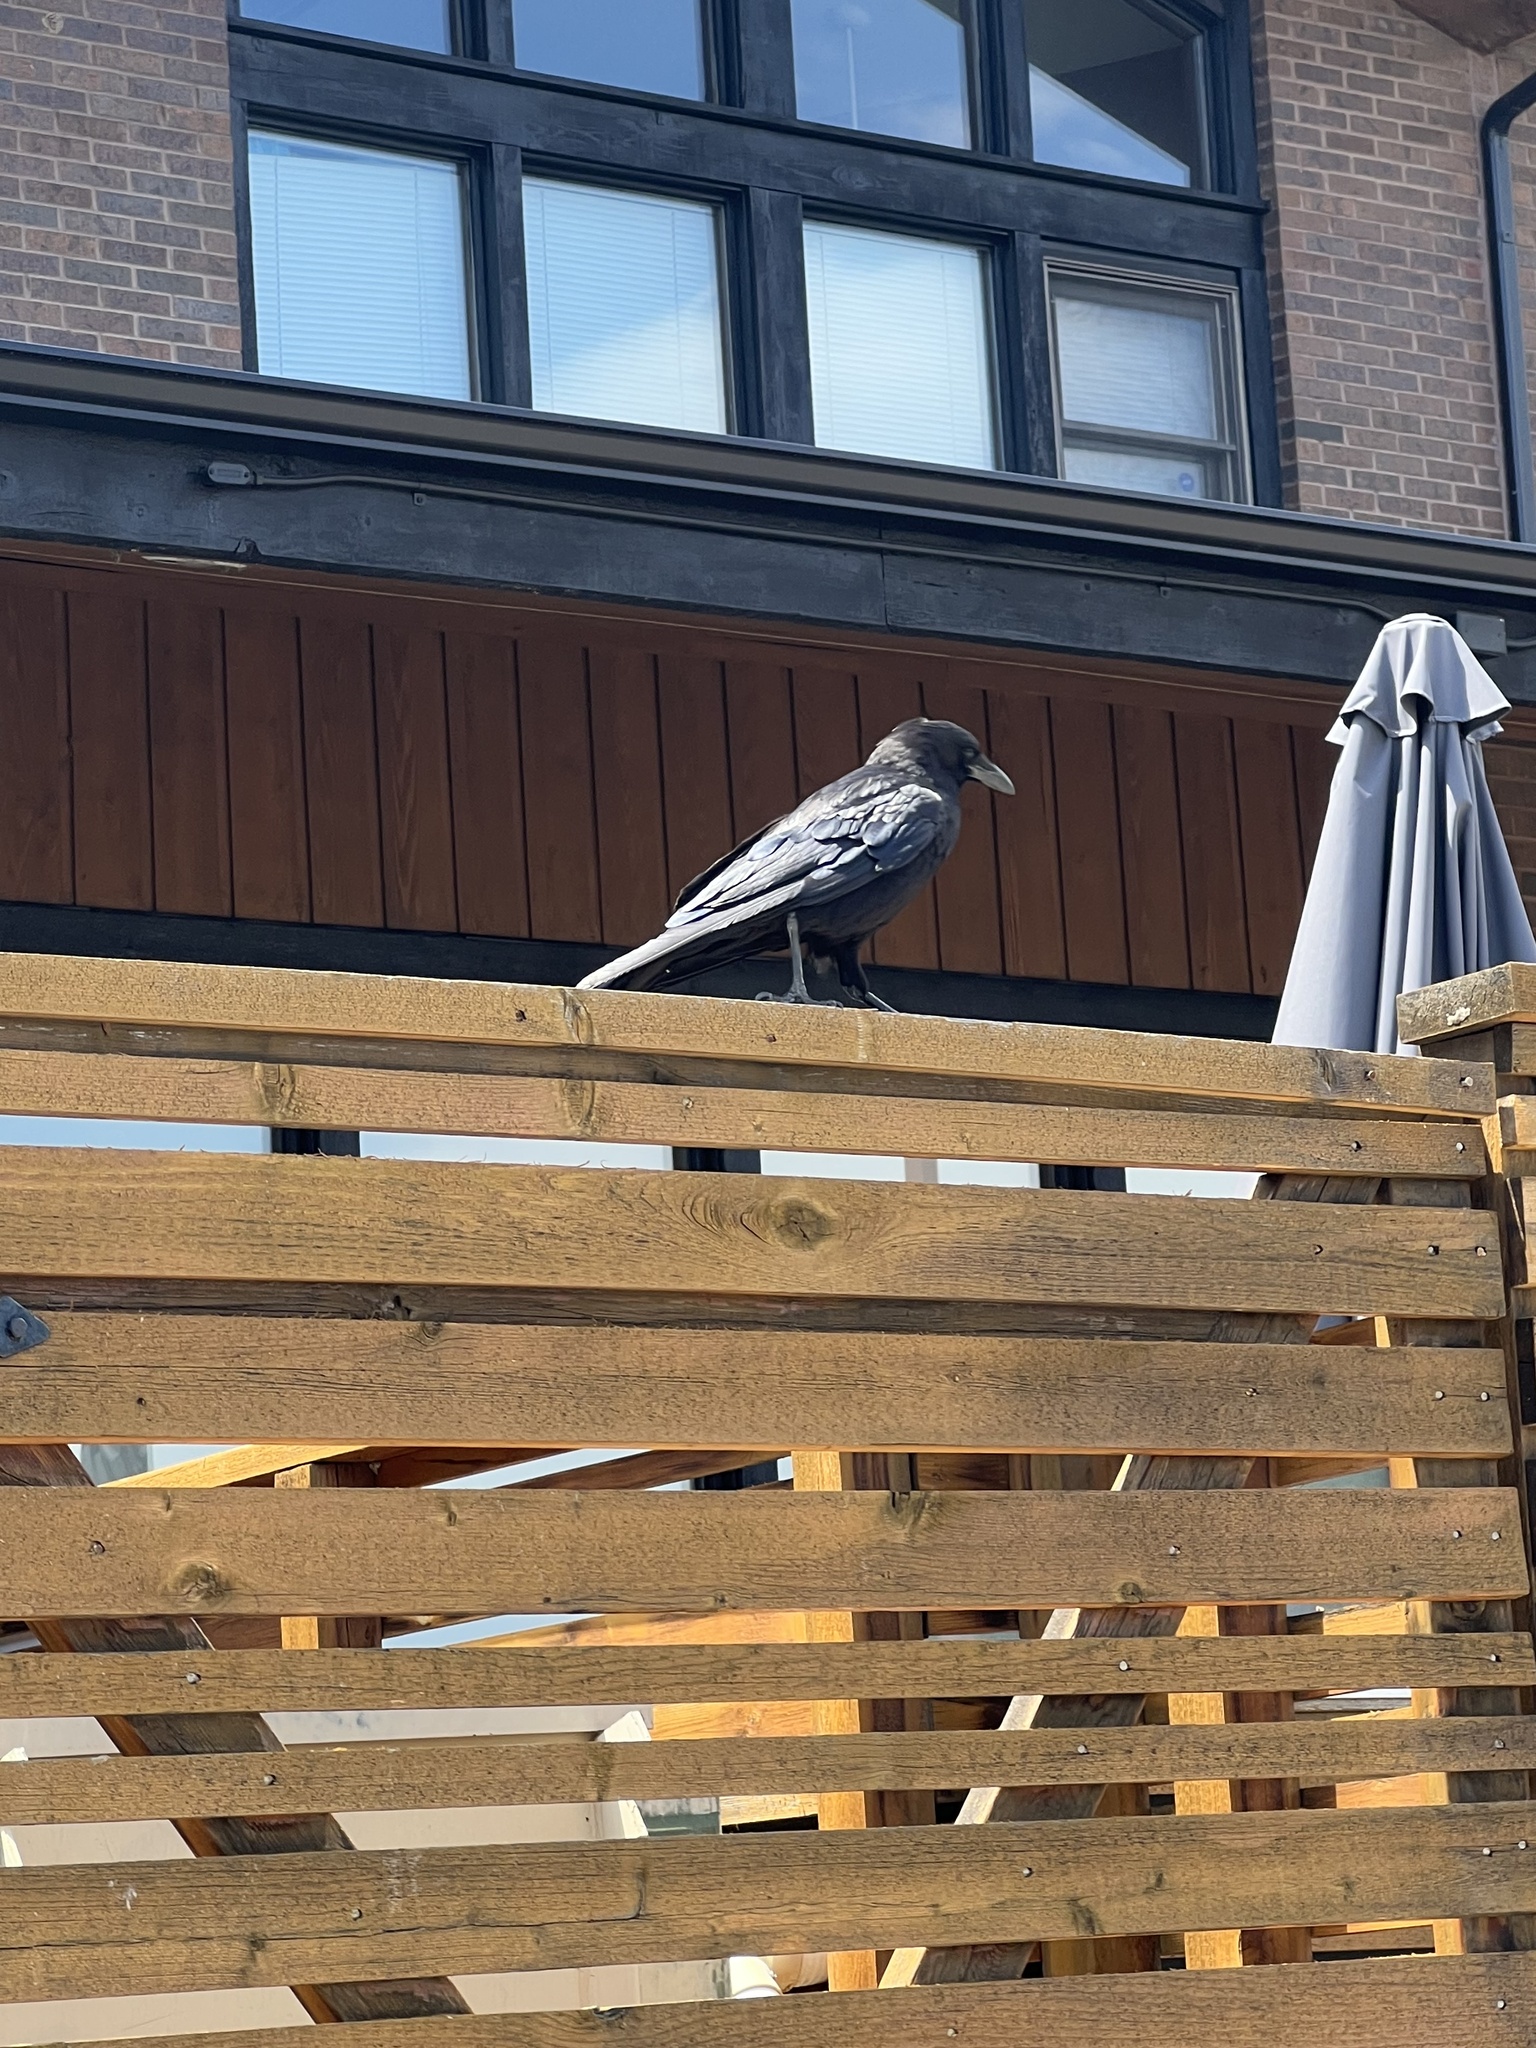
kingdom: Animalia
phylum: Chordata
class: Aves
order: Passeriformes
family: Corvidae
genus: Corvus
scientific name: Corvus corax
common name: Common raven
